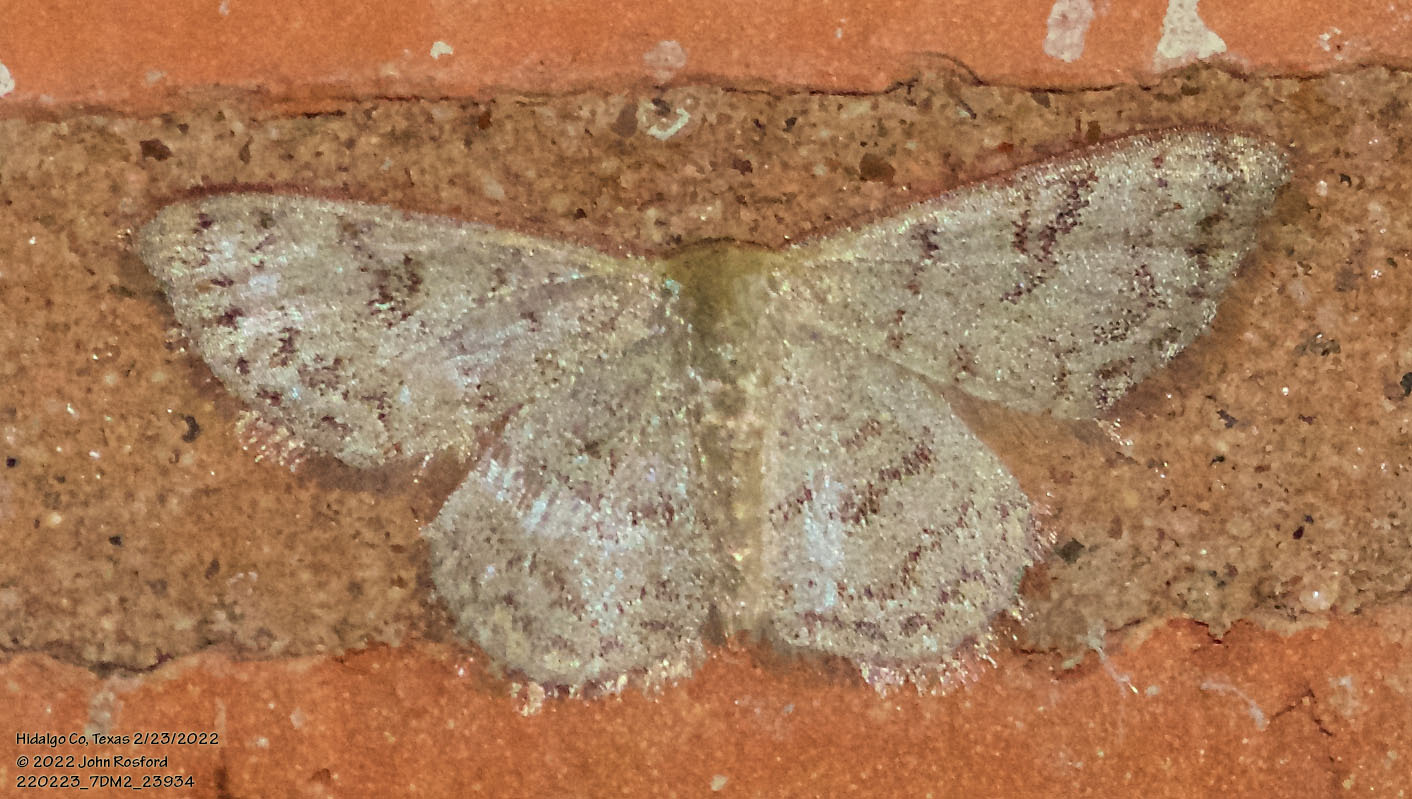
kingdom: Animalia
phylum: Arthropoda
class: Insecta
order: Lepidoptera
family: Geometridae
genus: Leptostales
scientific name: Leptostales pannaria
